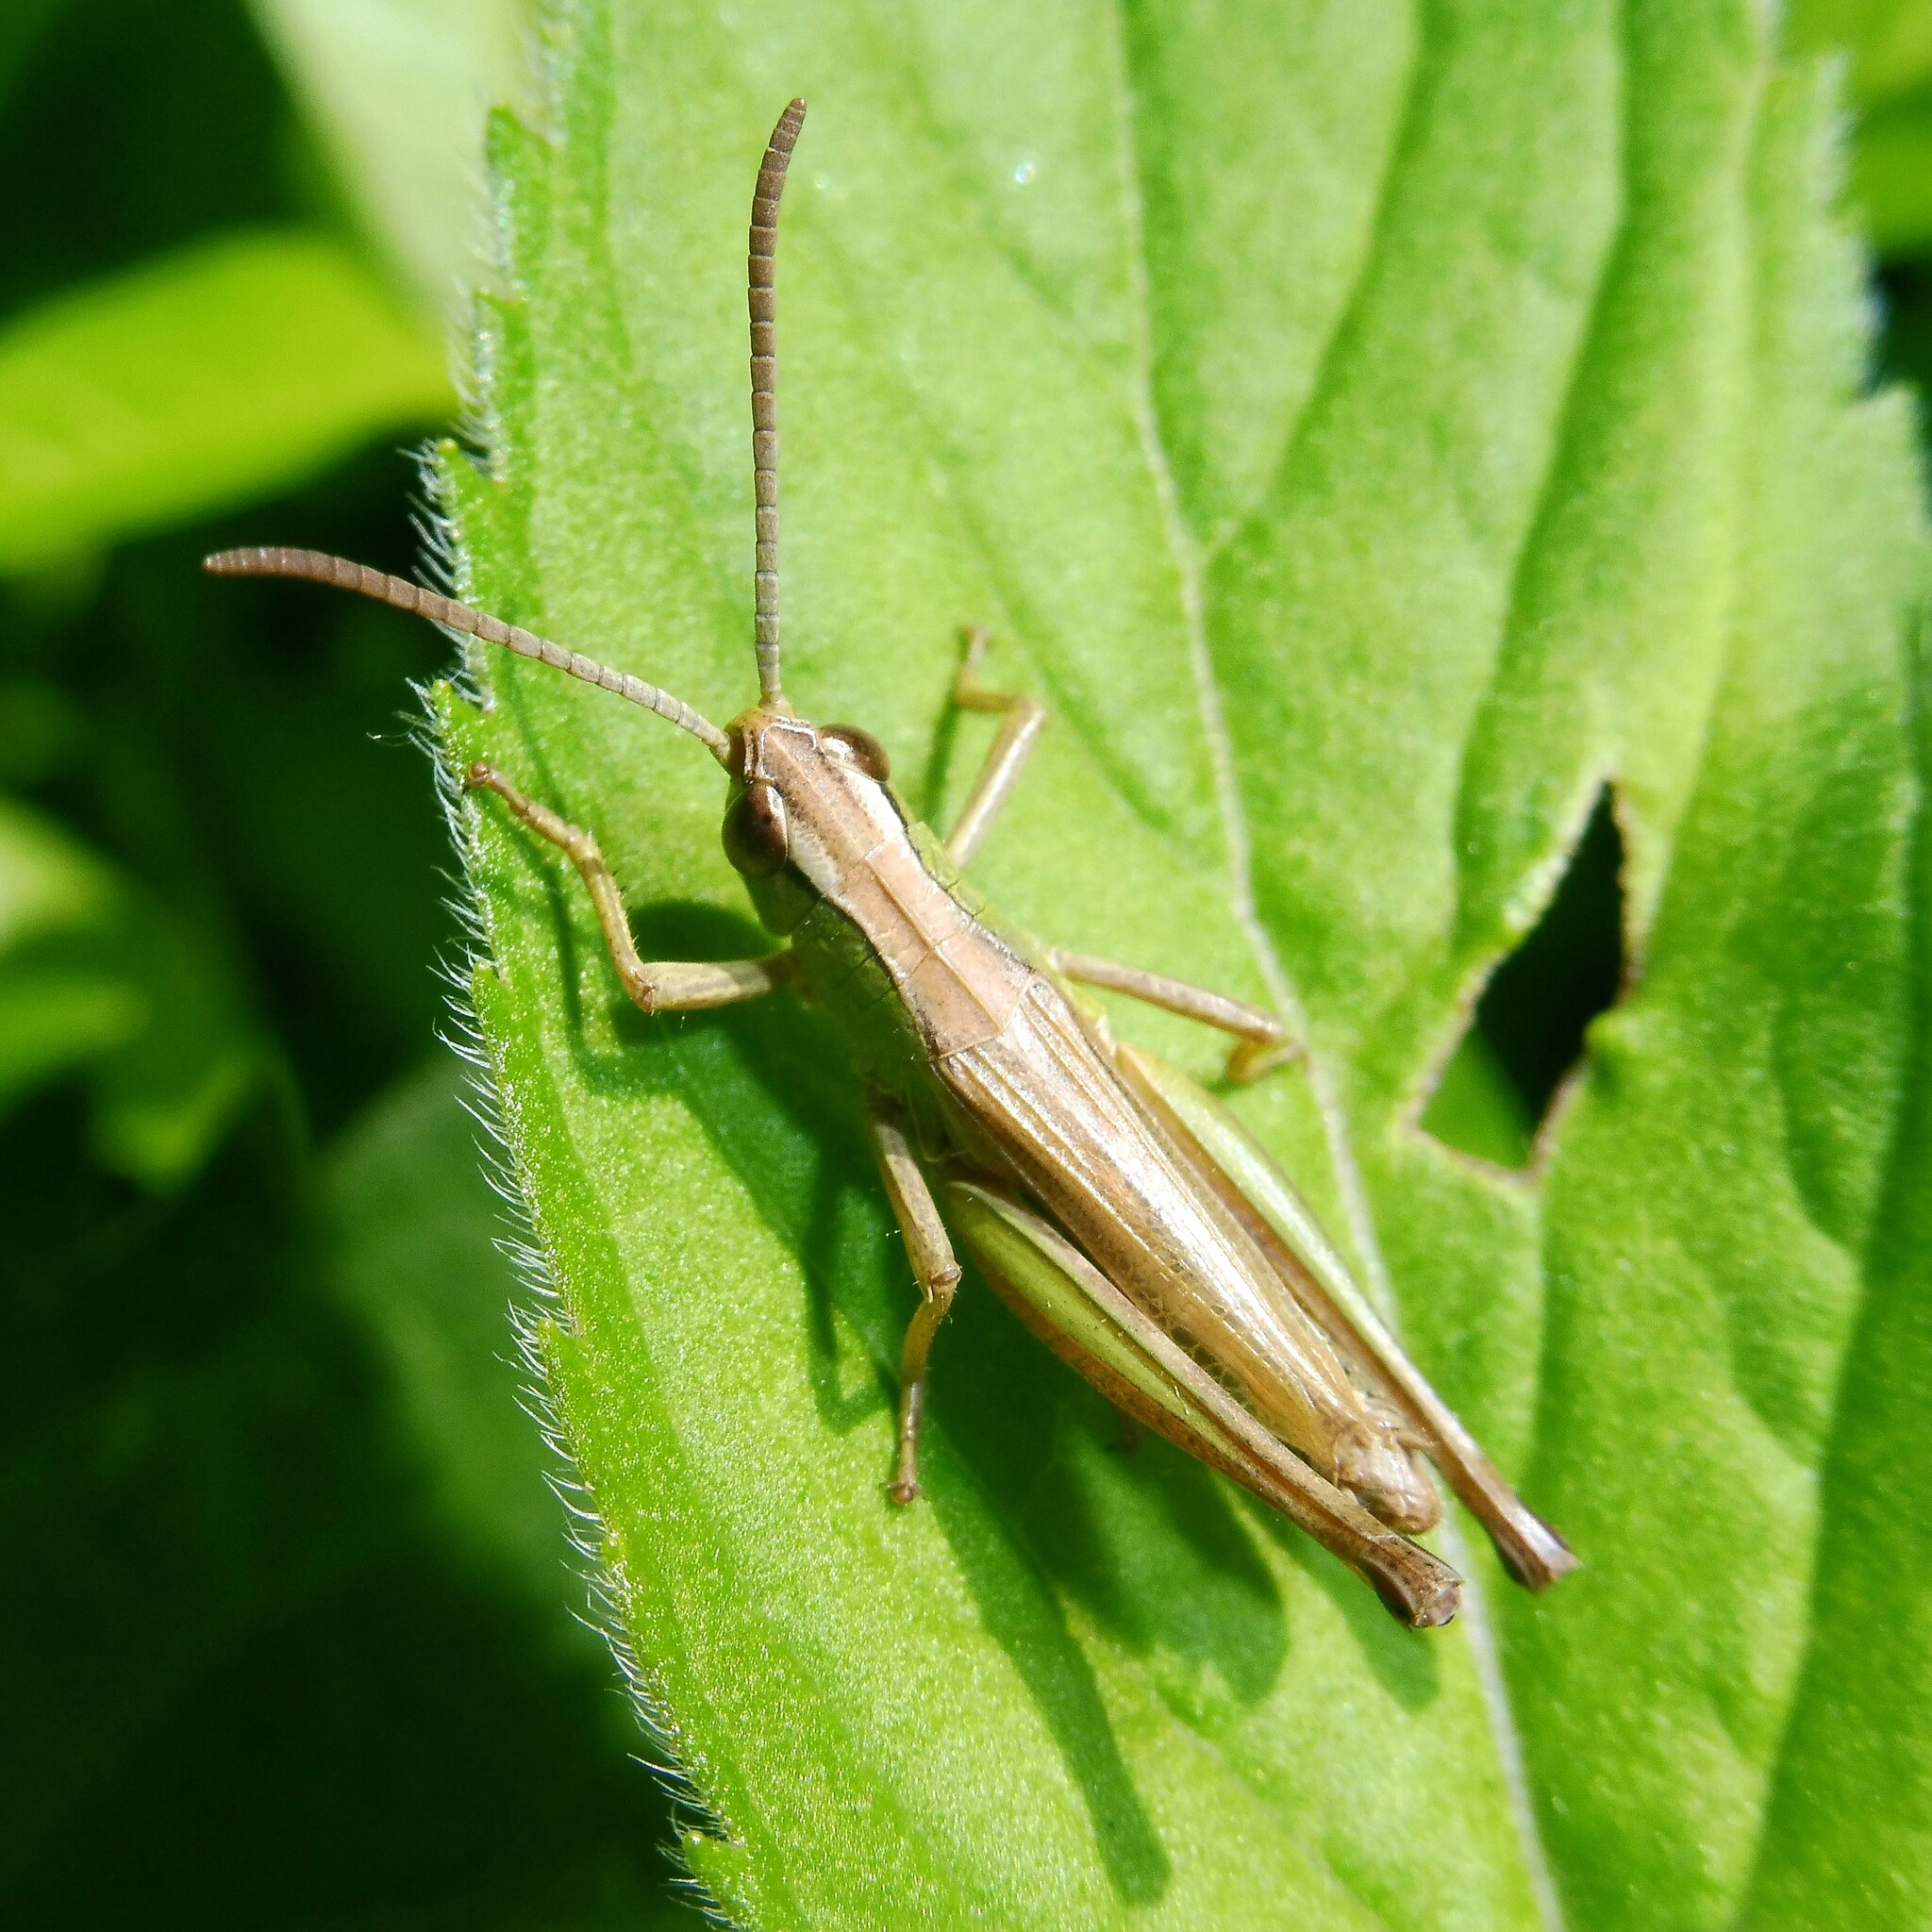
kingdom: Animalia
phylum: Arthropoda
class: Insecta
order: Orthoptera
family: Acrididae
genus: Pseudochorthippus
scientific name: Pseudochorthippus parallelus
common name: Meadow grasshopper
